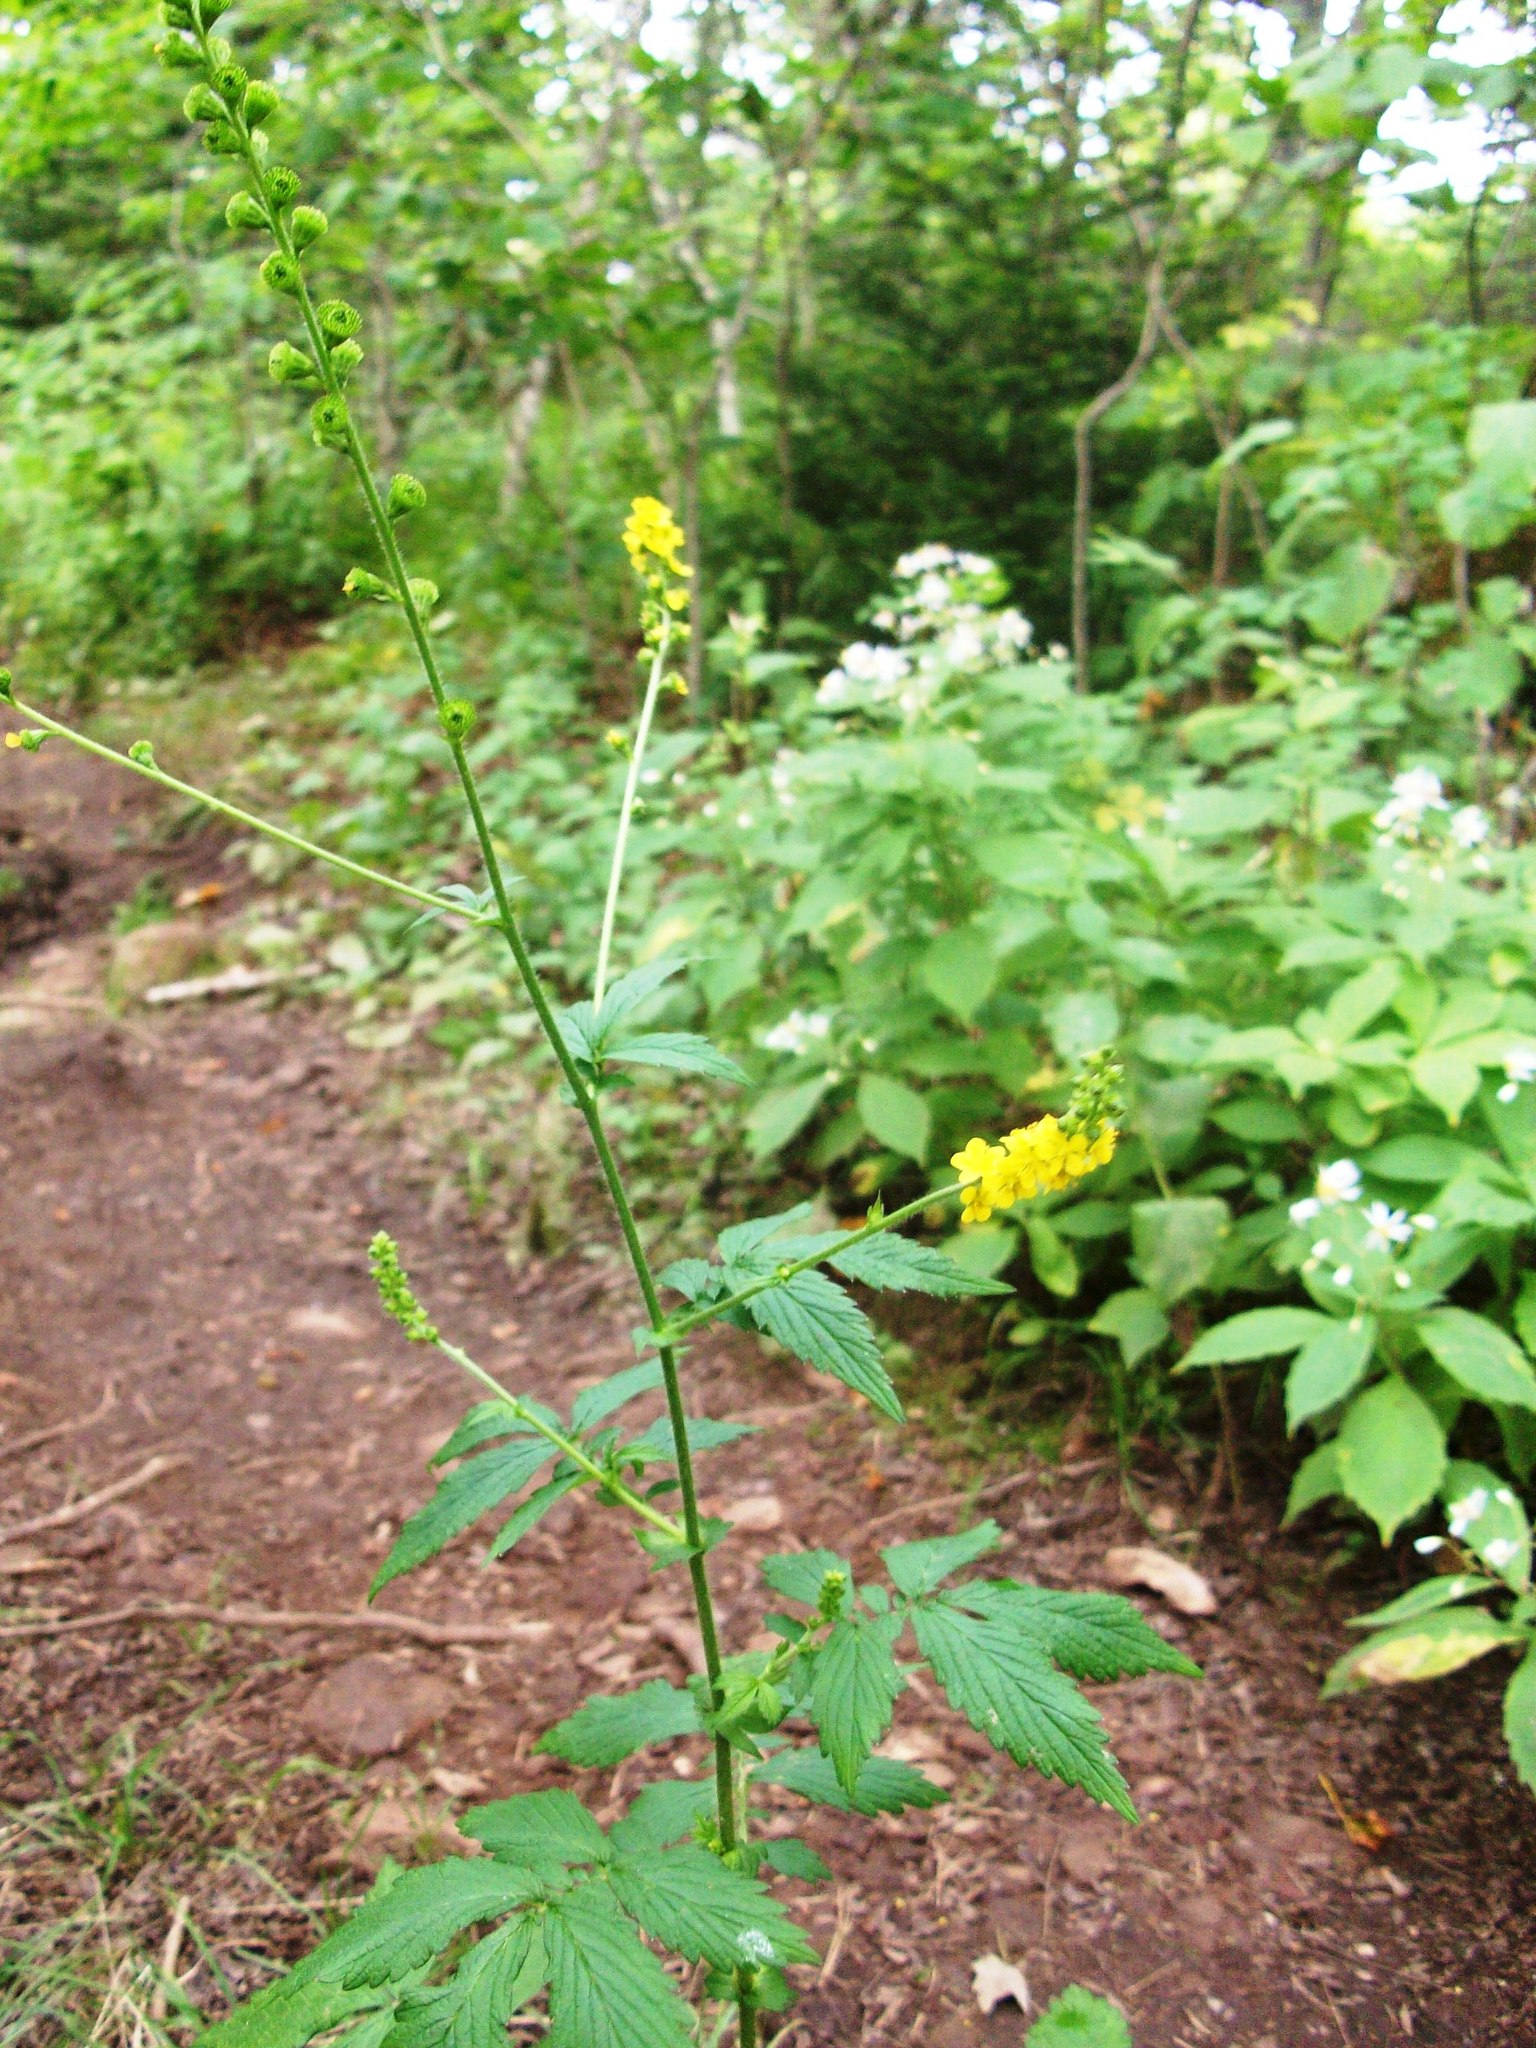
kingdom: Plantae
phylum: Tracheophyta
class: Magnoliopsida
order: Rosales
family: Rosaceae
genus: Agrimonia
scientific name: Agrimonia striata
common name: Britton's agrimony
